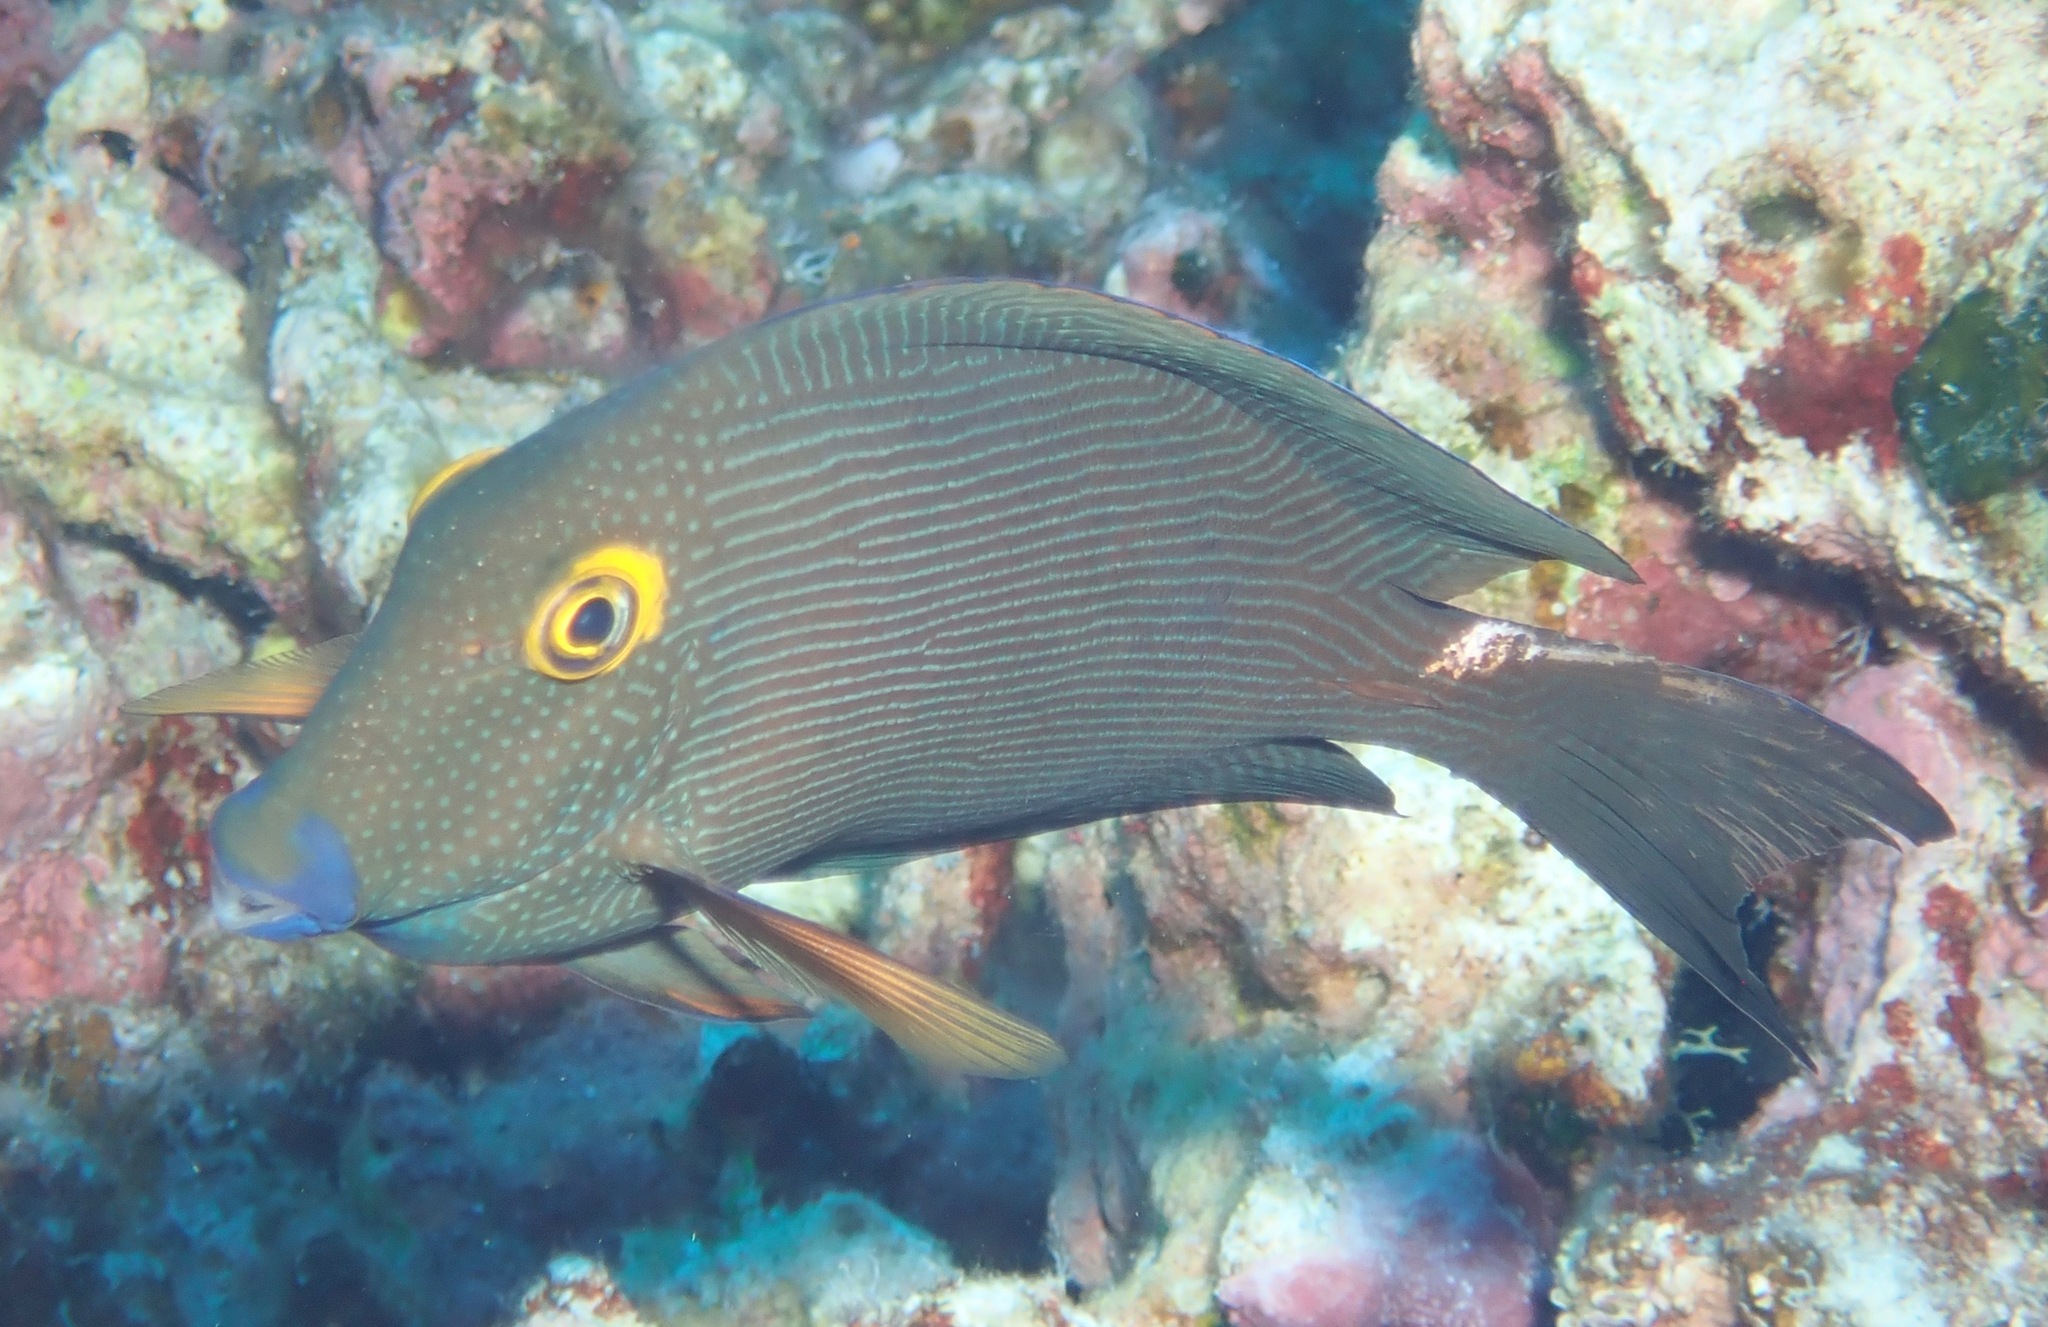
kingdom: Animalia
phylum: Chordata
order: Perciformes
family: Acanthuridae
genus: Ctenochaetus
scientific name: Ctenochaetus strigosus
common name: Bristletoothed surgeonfish
